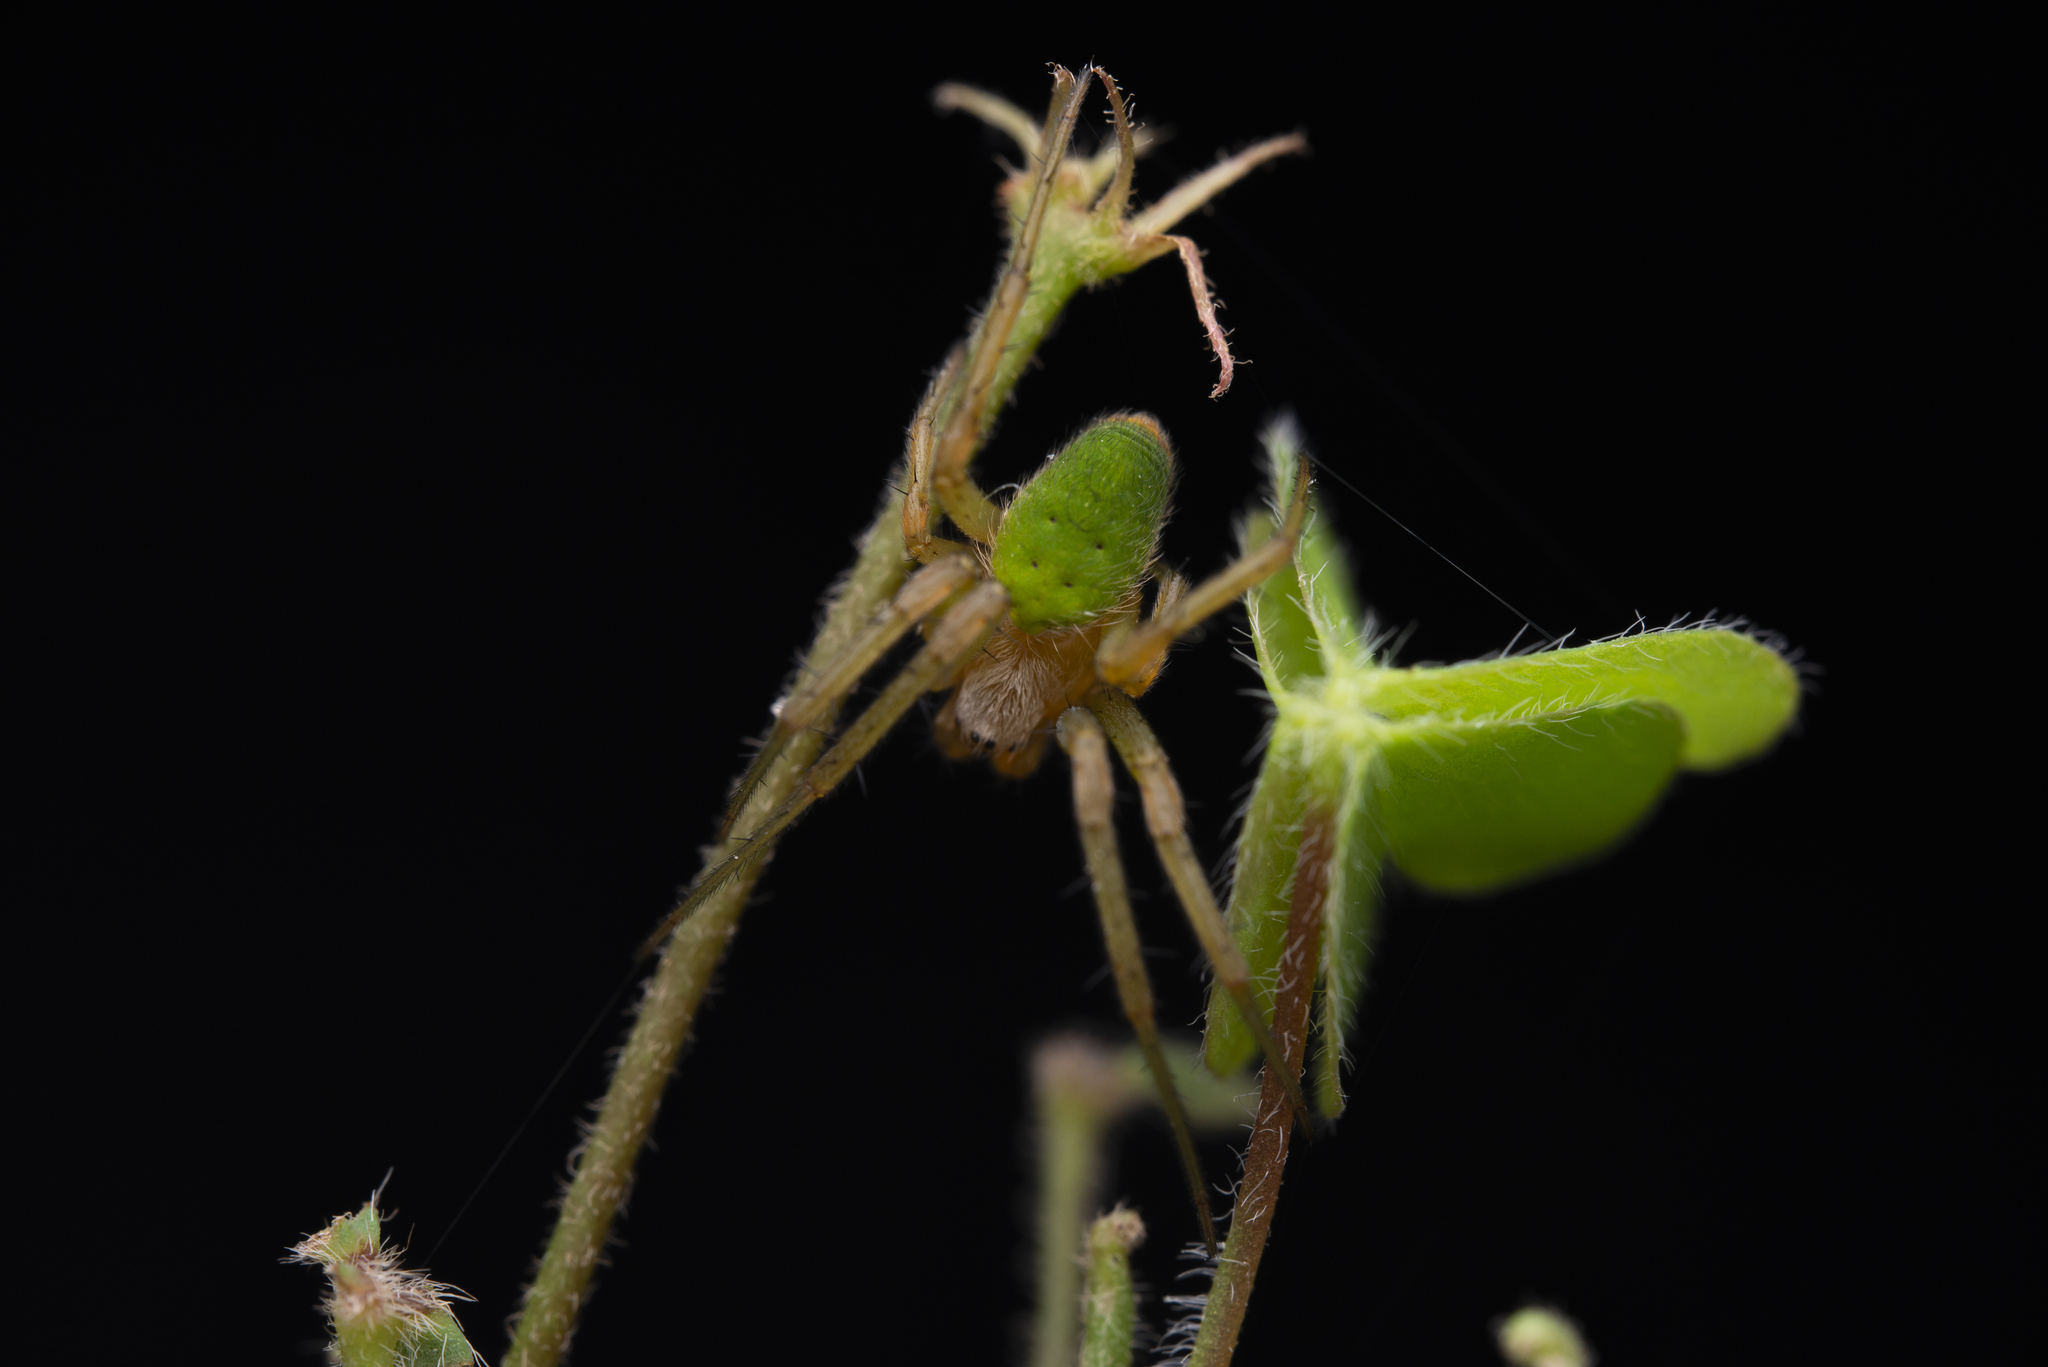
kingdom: Animalia
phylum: Arthropoda
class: Arachnida
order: Araneae
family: Araneidae
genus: Neoscona
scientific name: Neoscona scylloides
